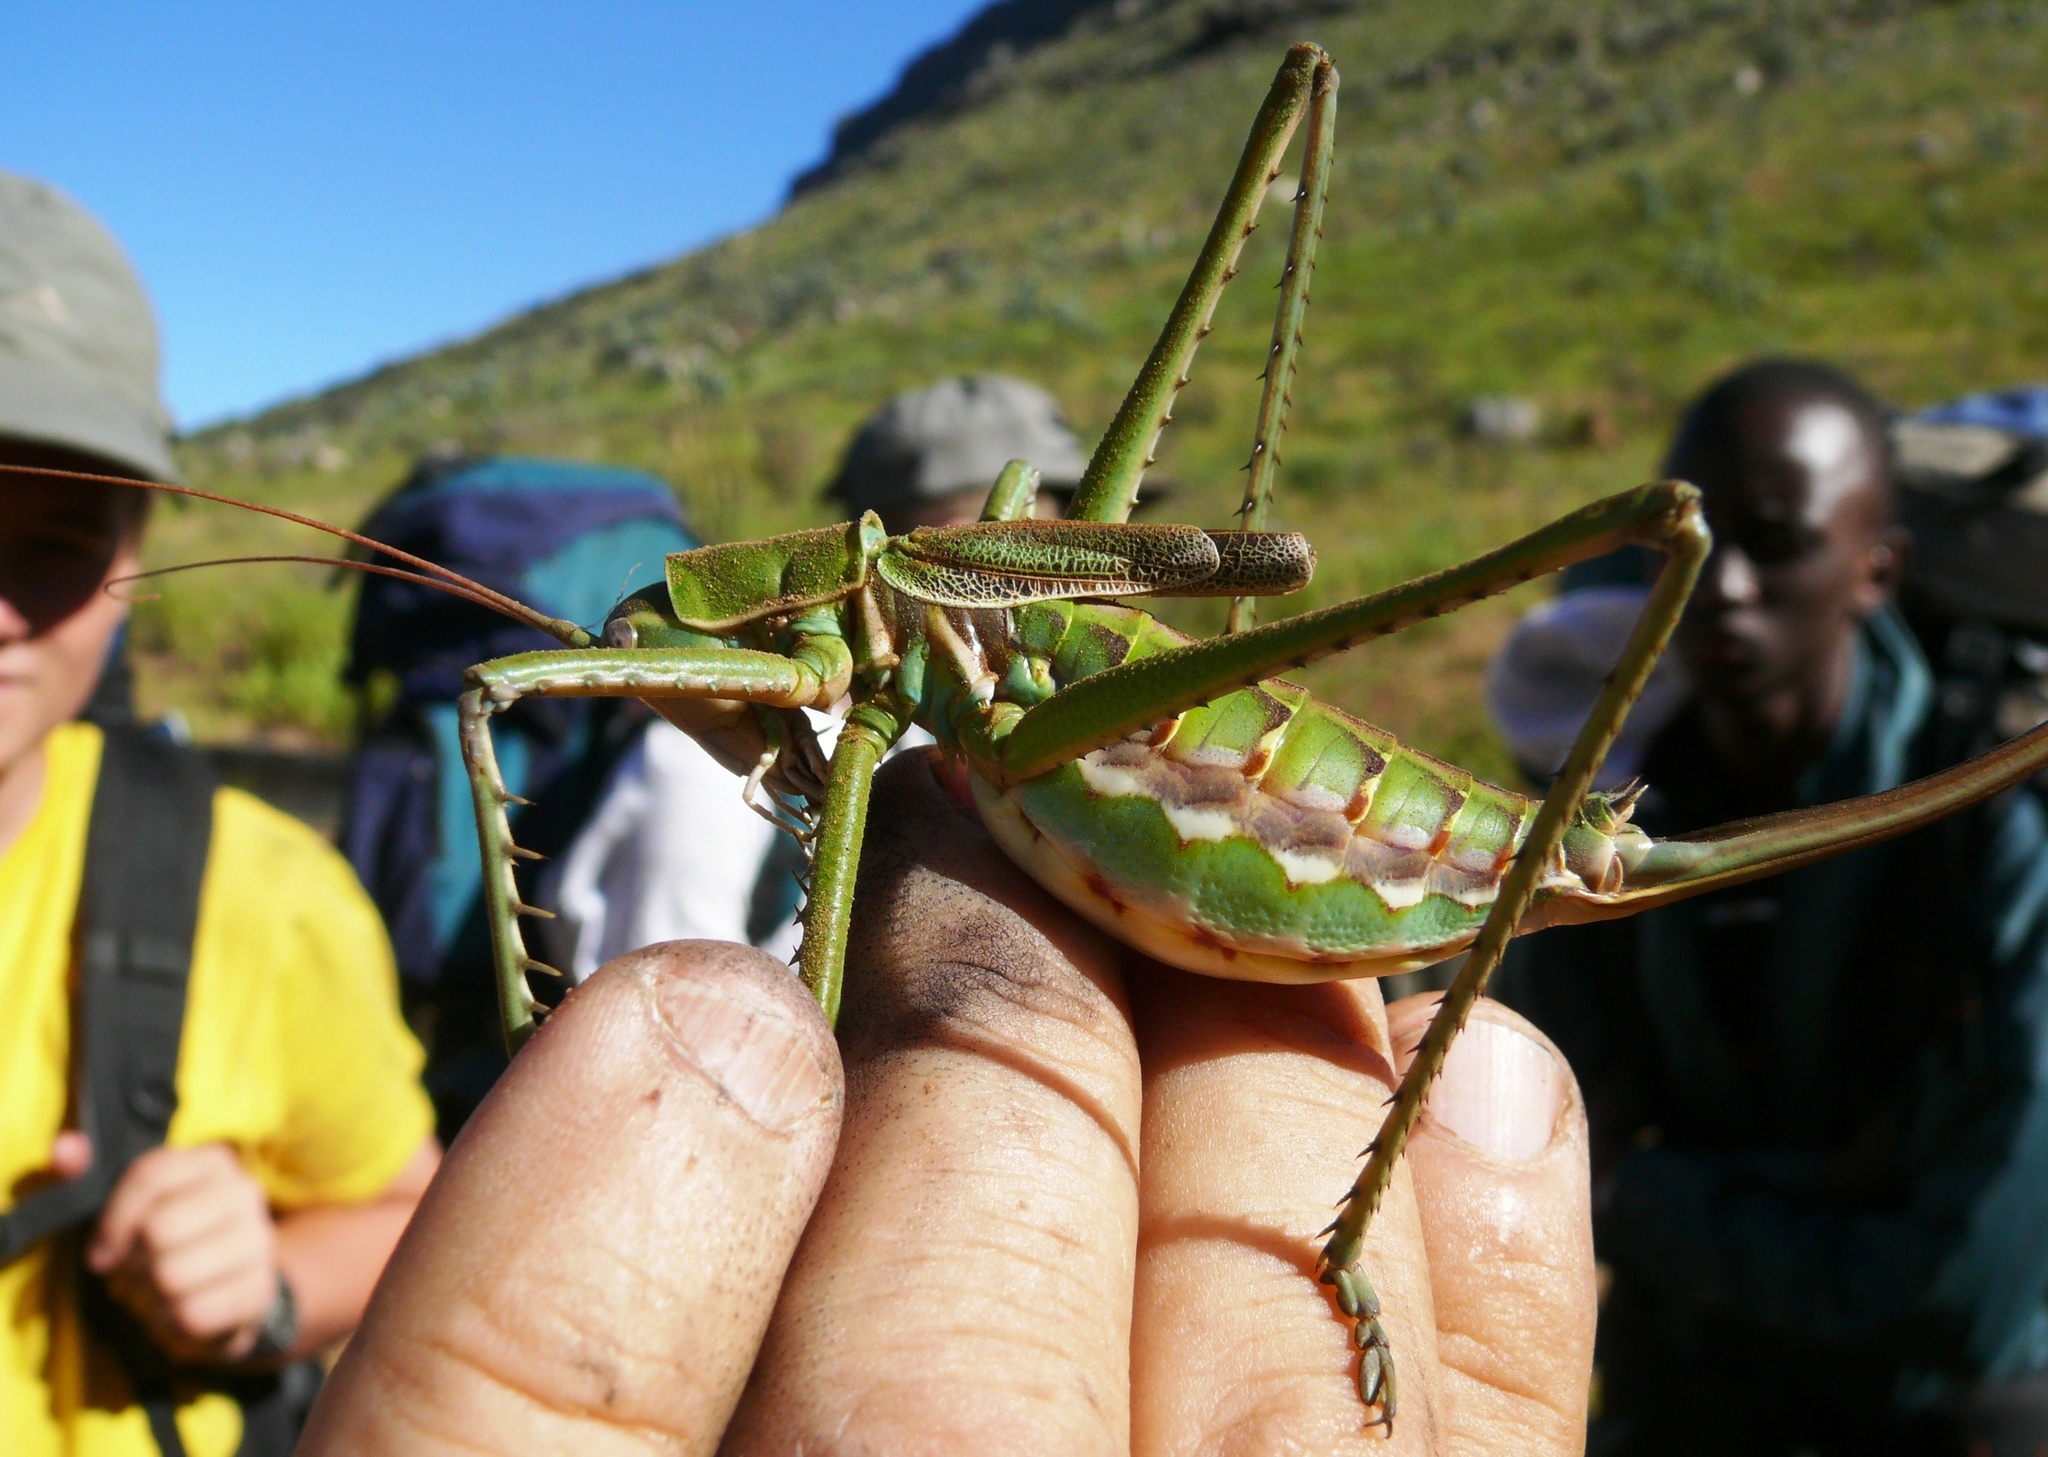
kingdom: Animalia
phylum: Arthropoda
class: Insecta
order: Orthoptera
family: Tettigoniidae
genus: Clonia
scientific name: Clonia melanoptera
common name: Giant black-winged clonia
